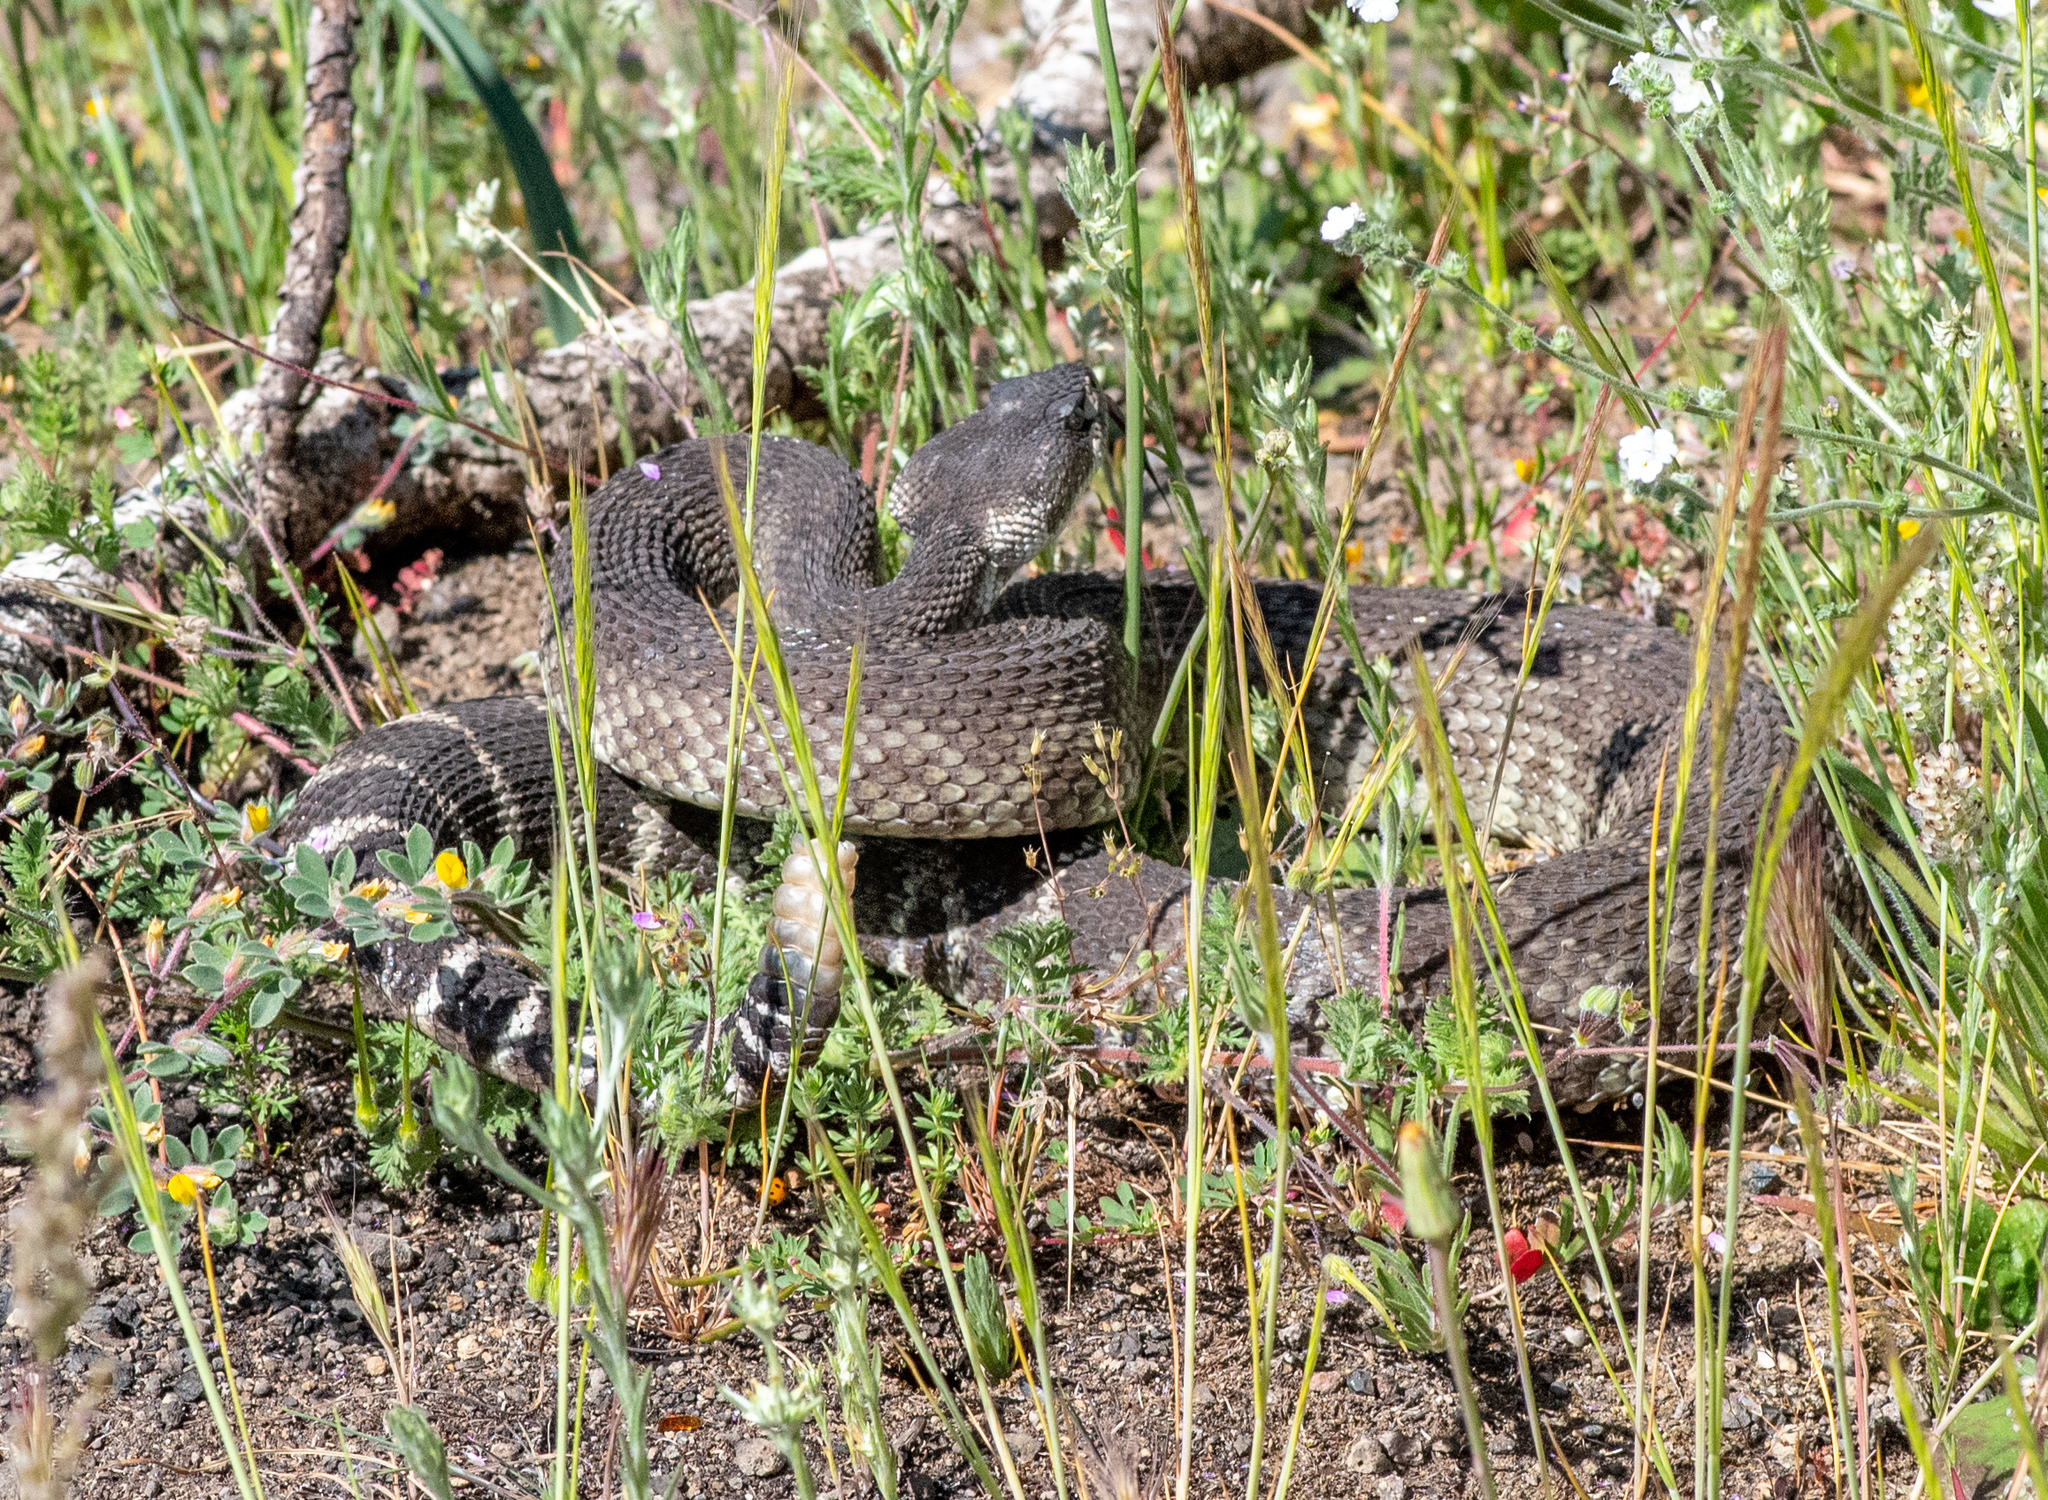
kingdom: Animalia
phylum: Chordata
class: Squamata
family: Viperidae
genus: Crotalus
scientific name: Crotalus oreganus
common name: Abyssus
